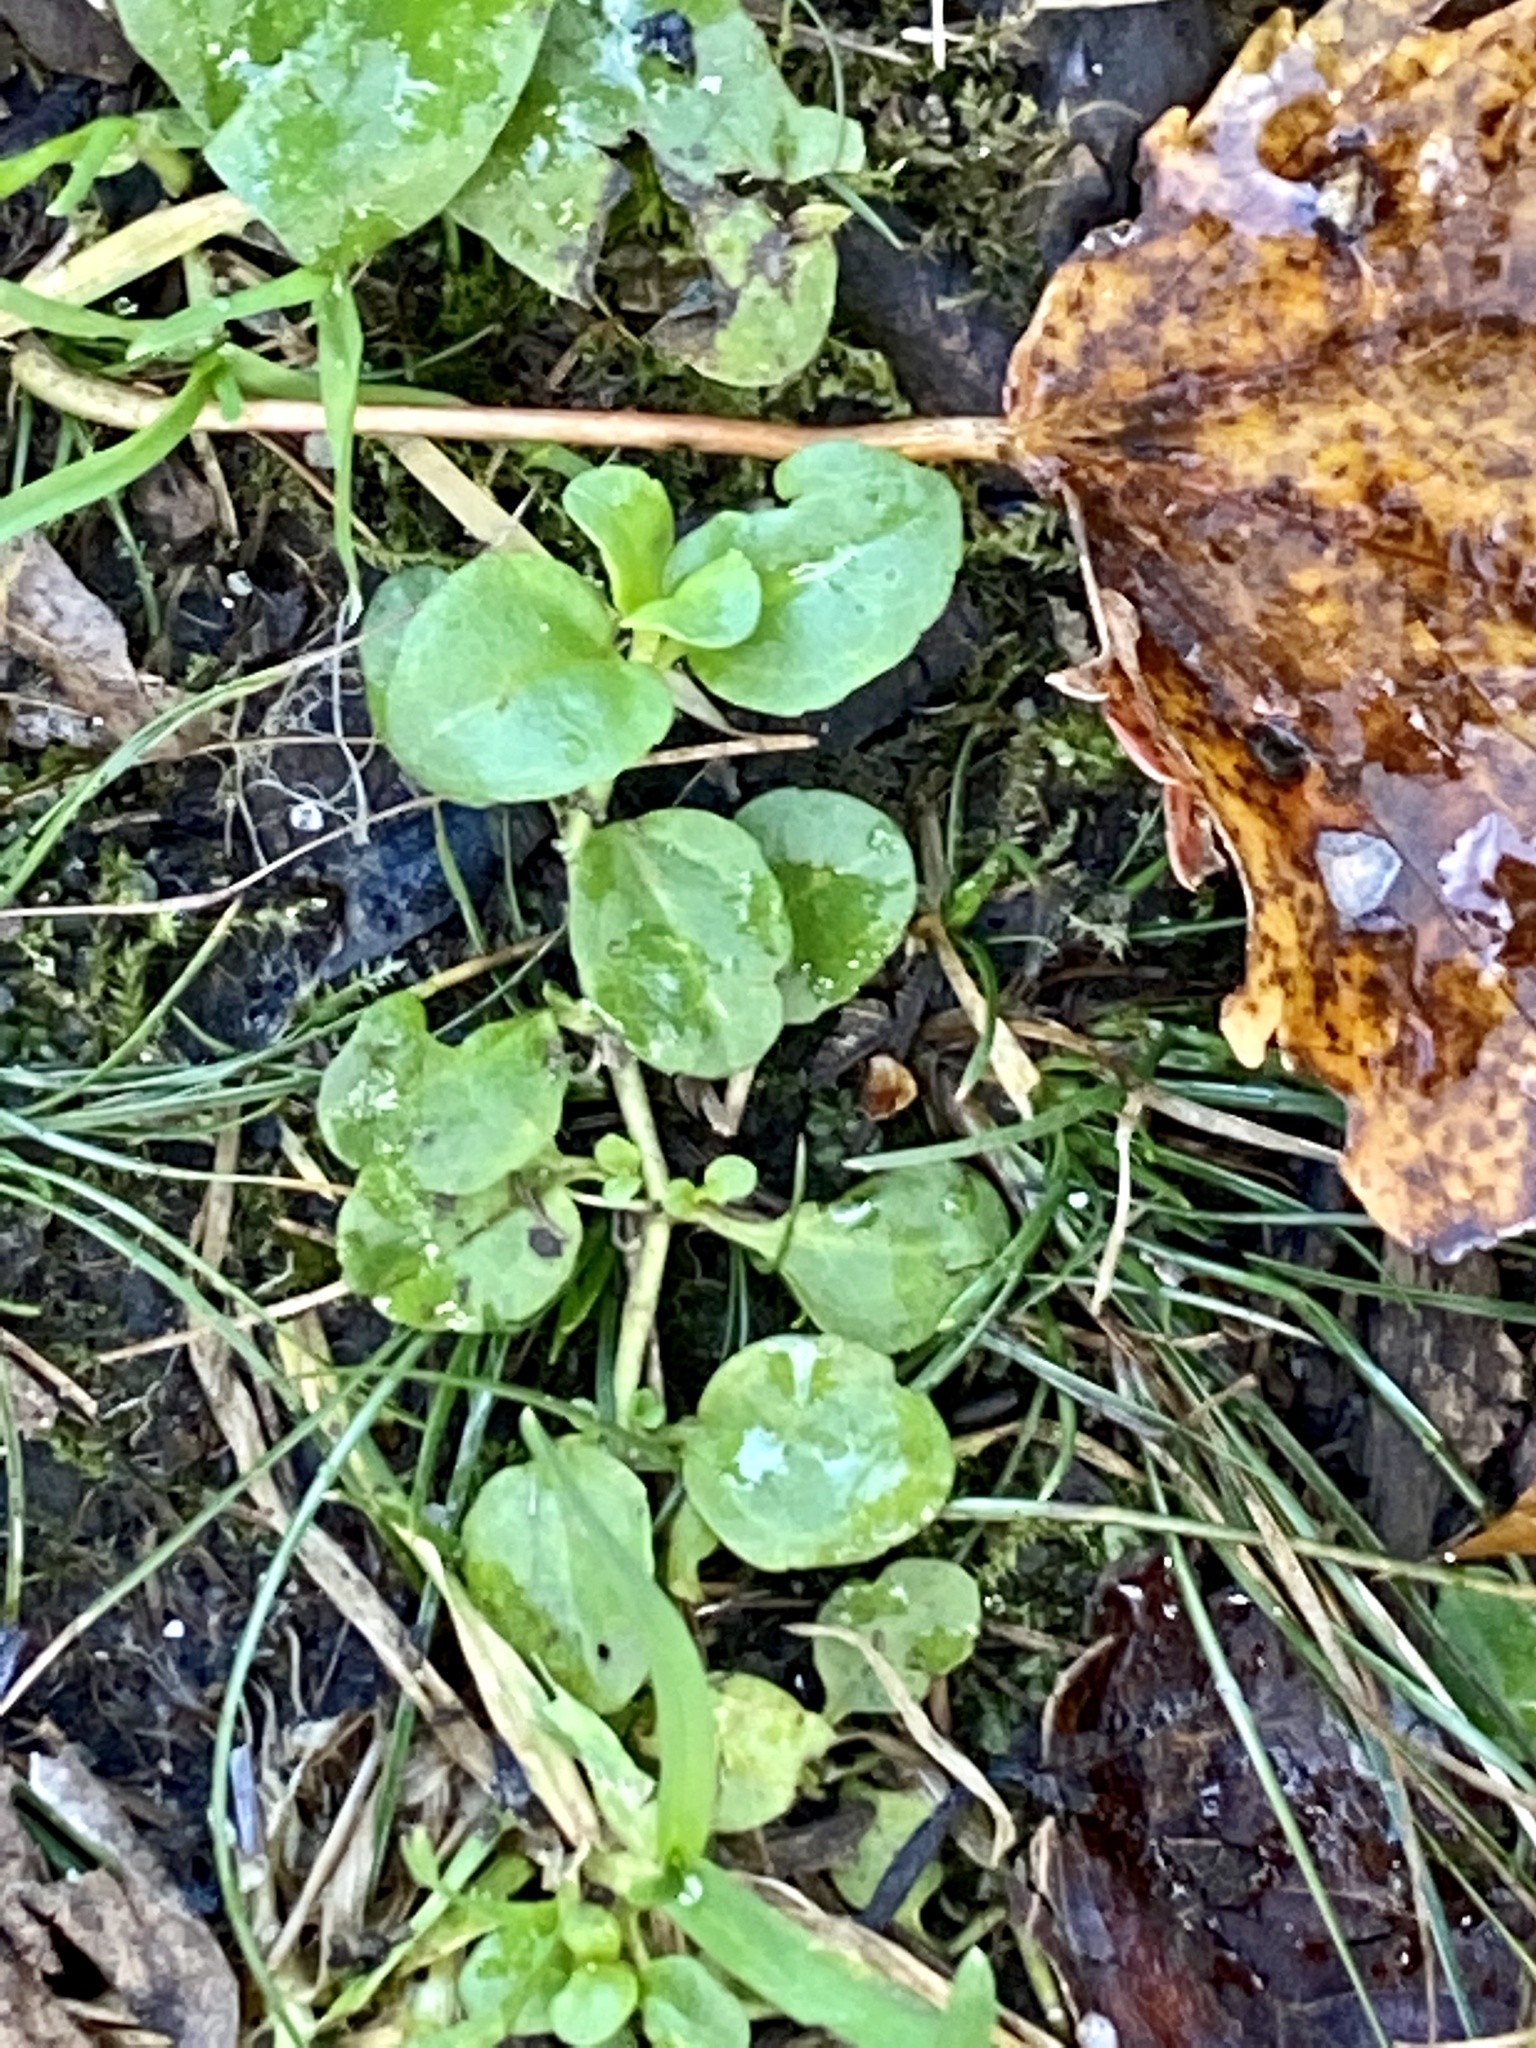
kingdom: Plantae
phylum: Tracheophyta
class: Magnoliopsida
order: Lamiales
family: Plantaginaceae
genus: Veronica
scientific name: Veronica serpyllifolia
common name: Thyme-leaved speedwell
